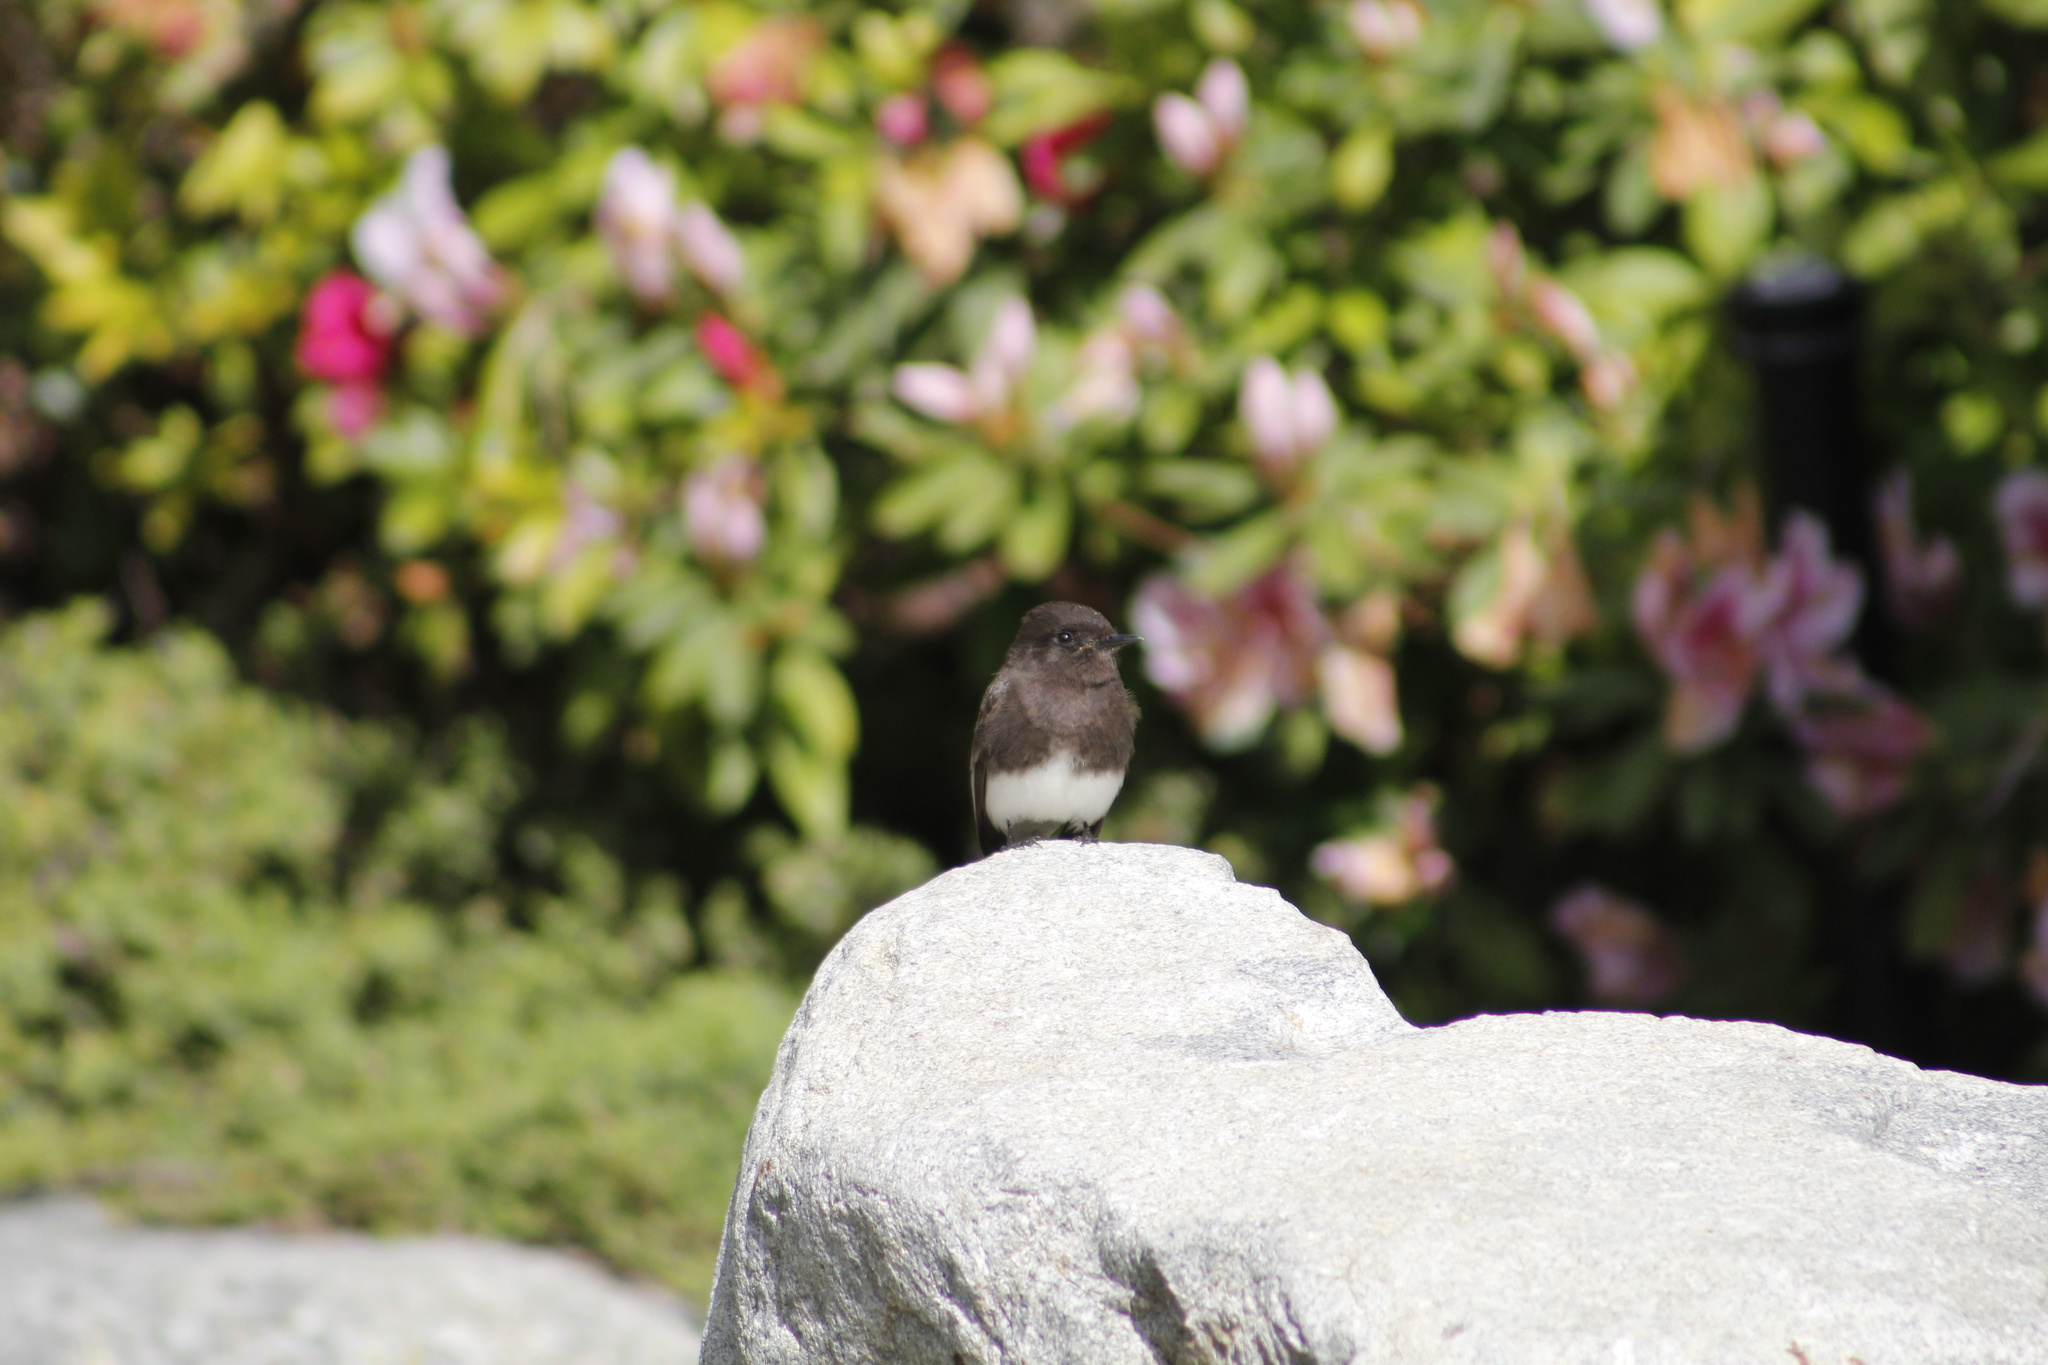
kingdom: Animalia
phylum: Chordata
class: Aves
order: Passeriformes
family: Tyrannidae
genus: Sayornis
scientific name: Sayornis nigricans
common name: Black phoebe
